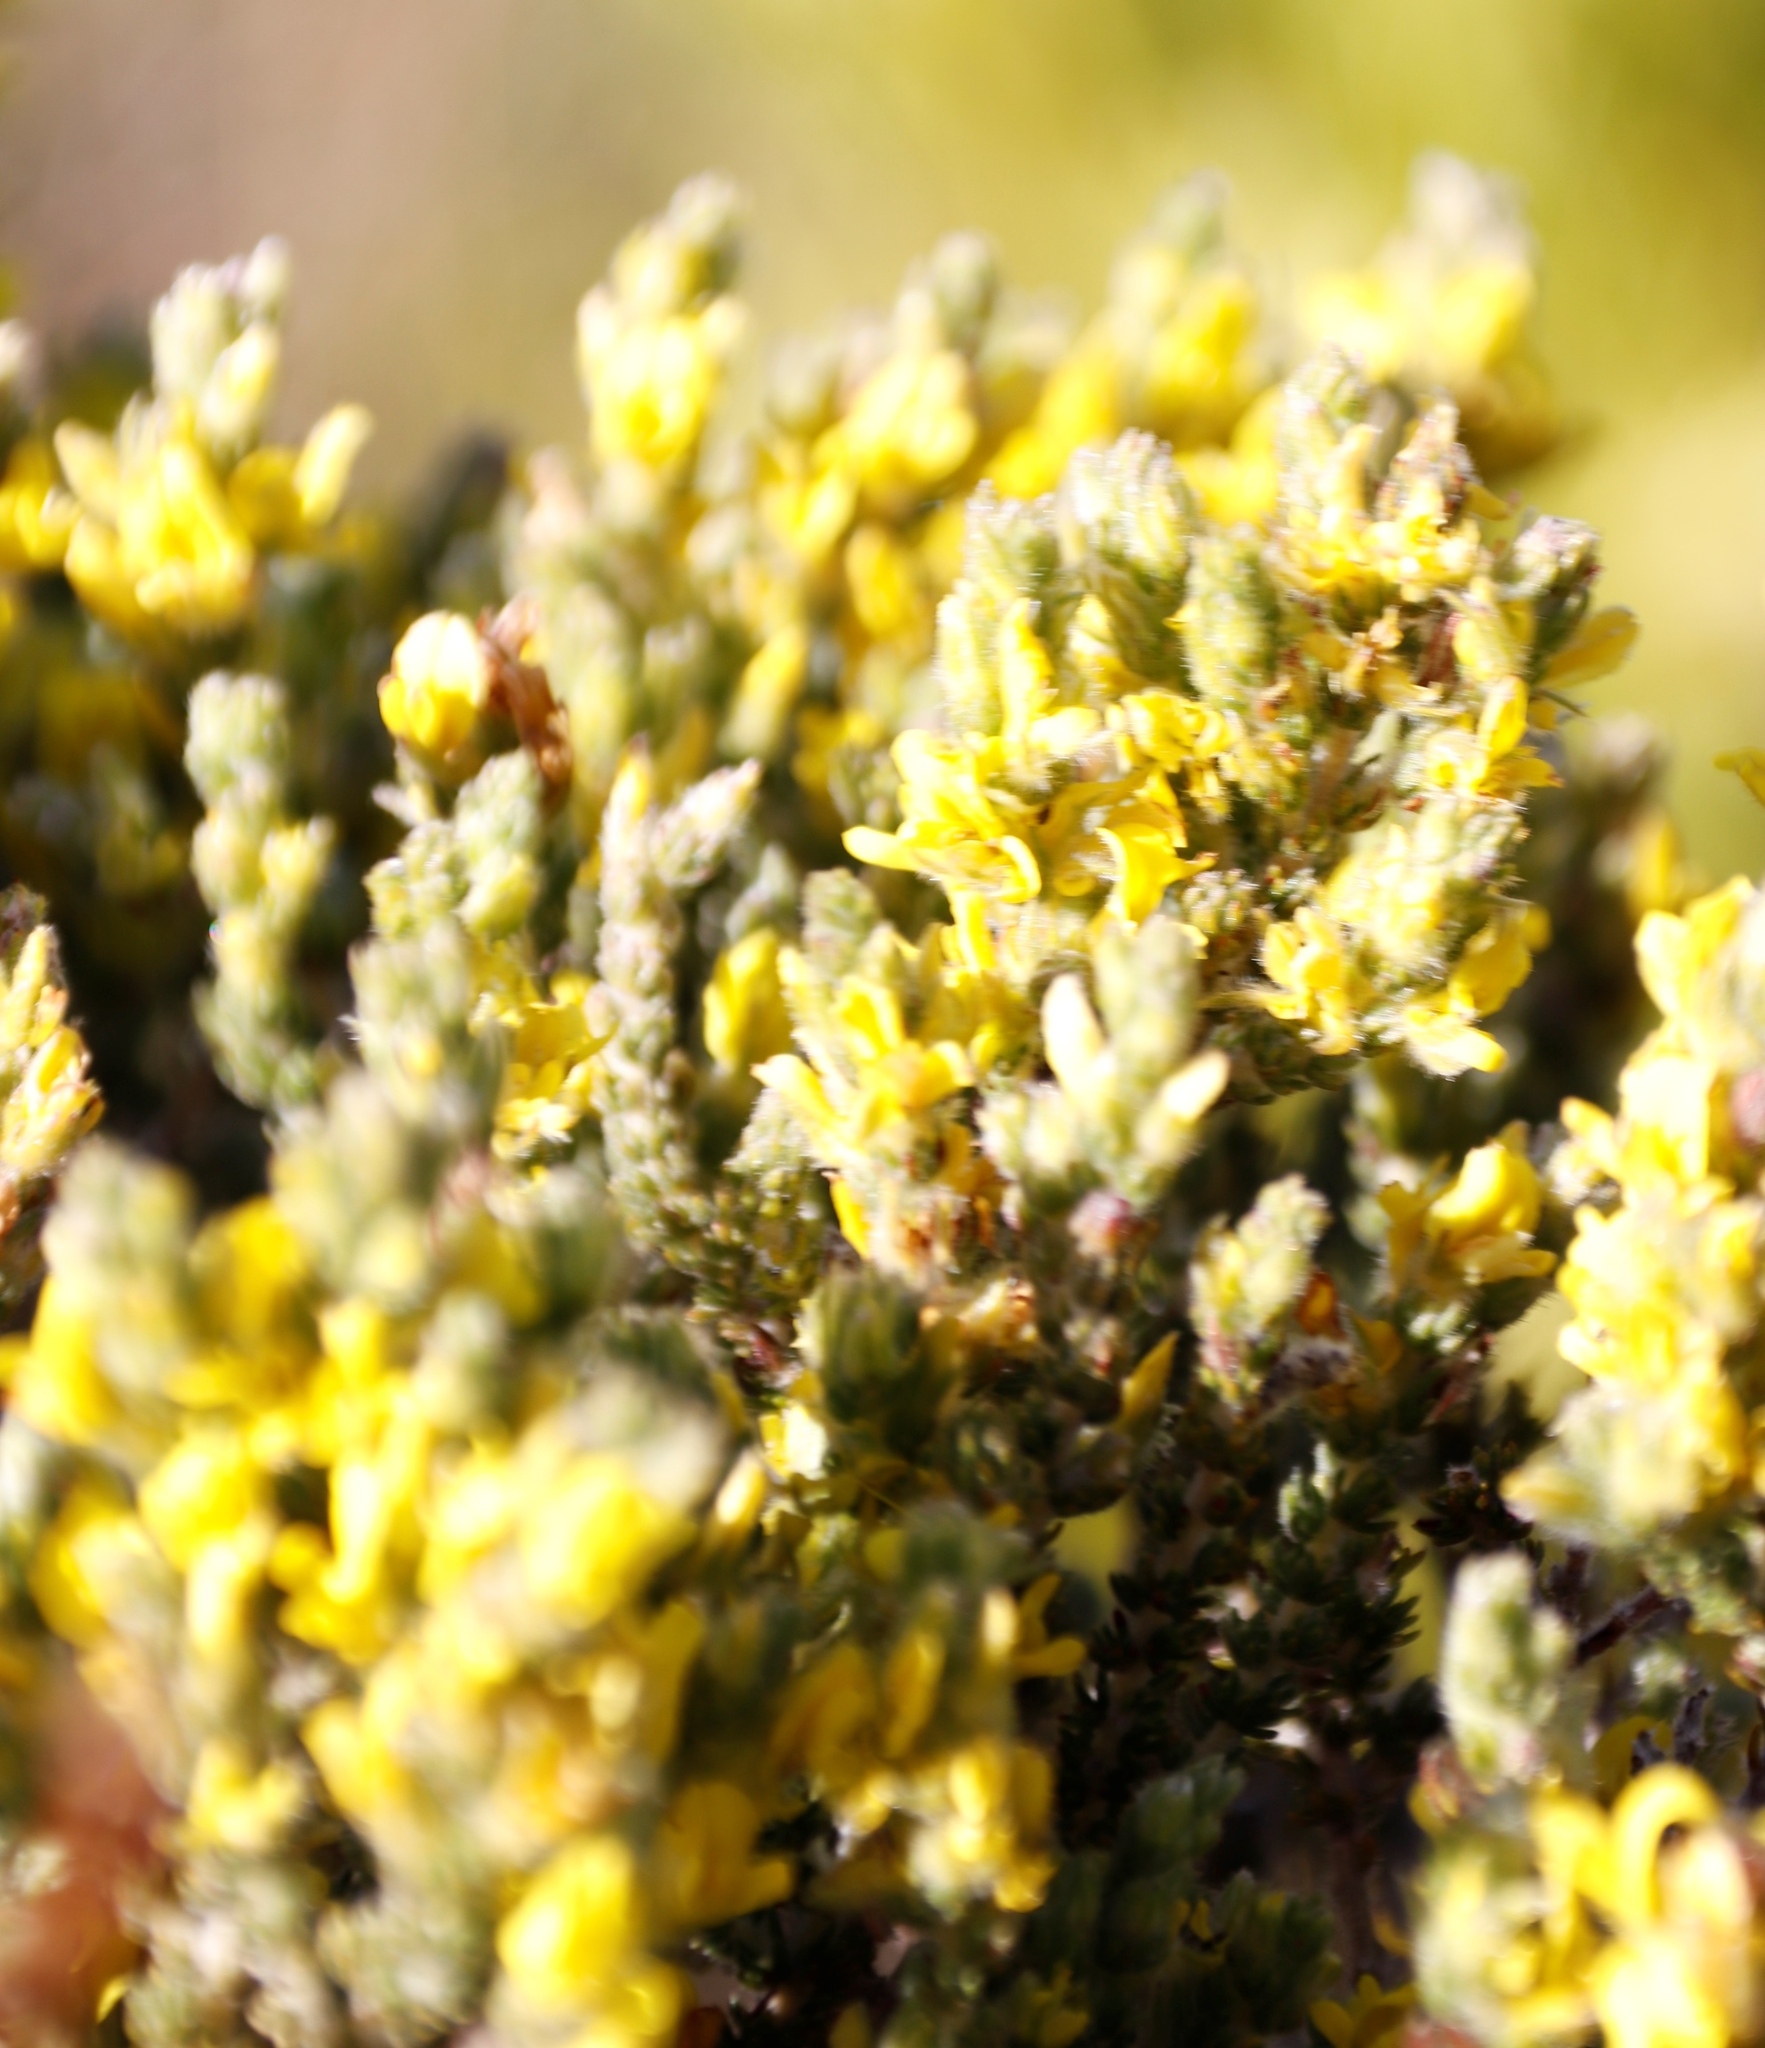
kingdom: Plantae
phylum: Tracheophyta
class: Magnoliopsida
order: Fabales
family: Fabaceae
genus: Aspalathus
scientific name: Aspalathus ericifolia
